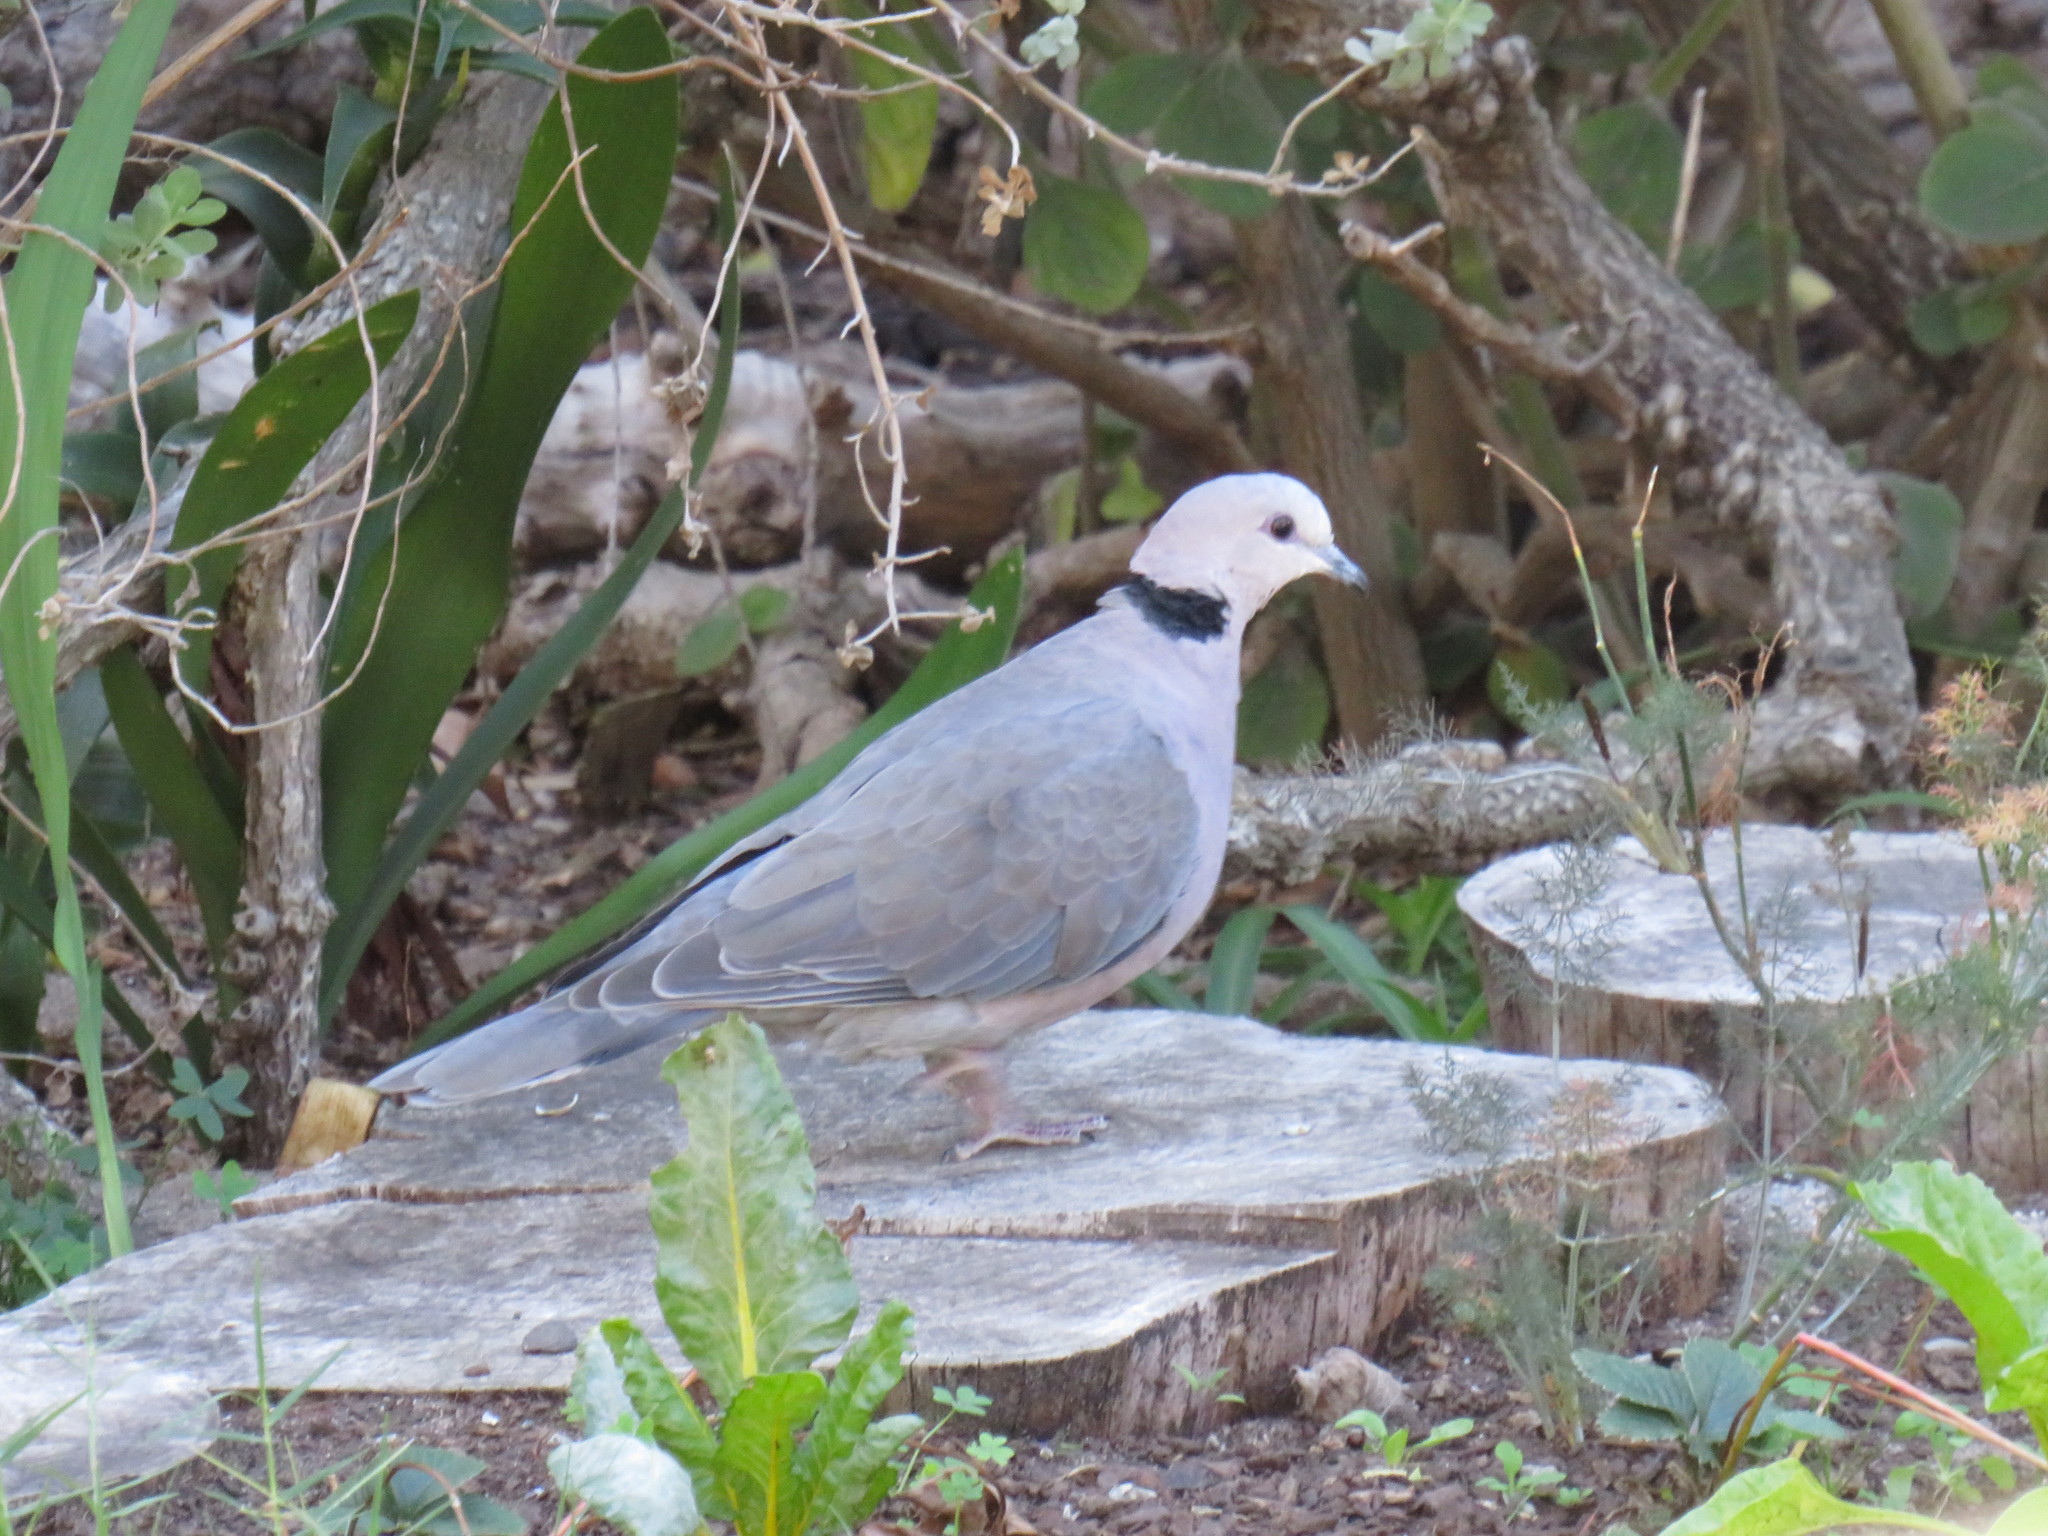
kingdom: Animalia
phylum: Chordata
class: Aves
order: Columbiformes
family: Columbidae
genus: Streptopelia
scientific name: Streptopelia semitorquata
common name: Red-eyed dove
